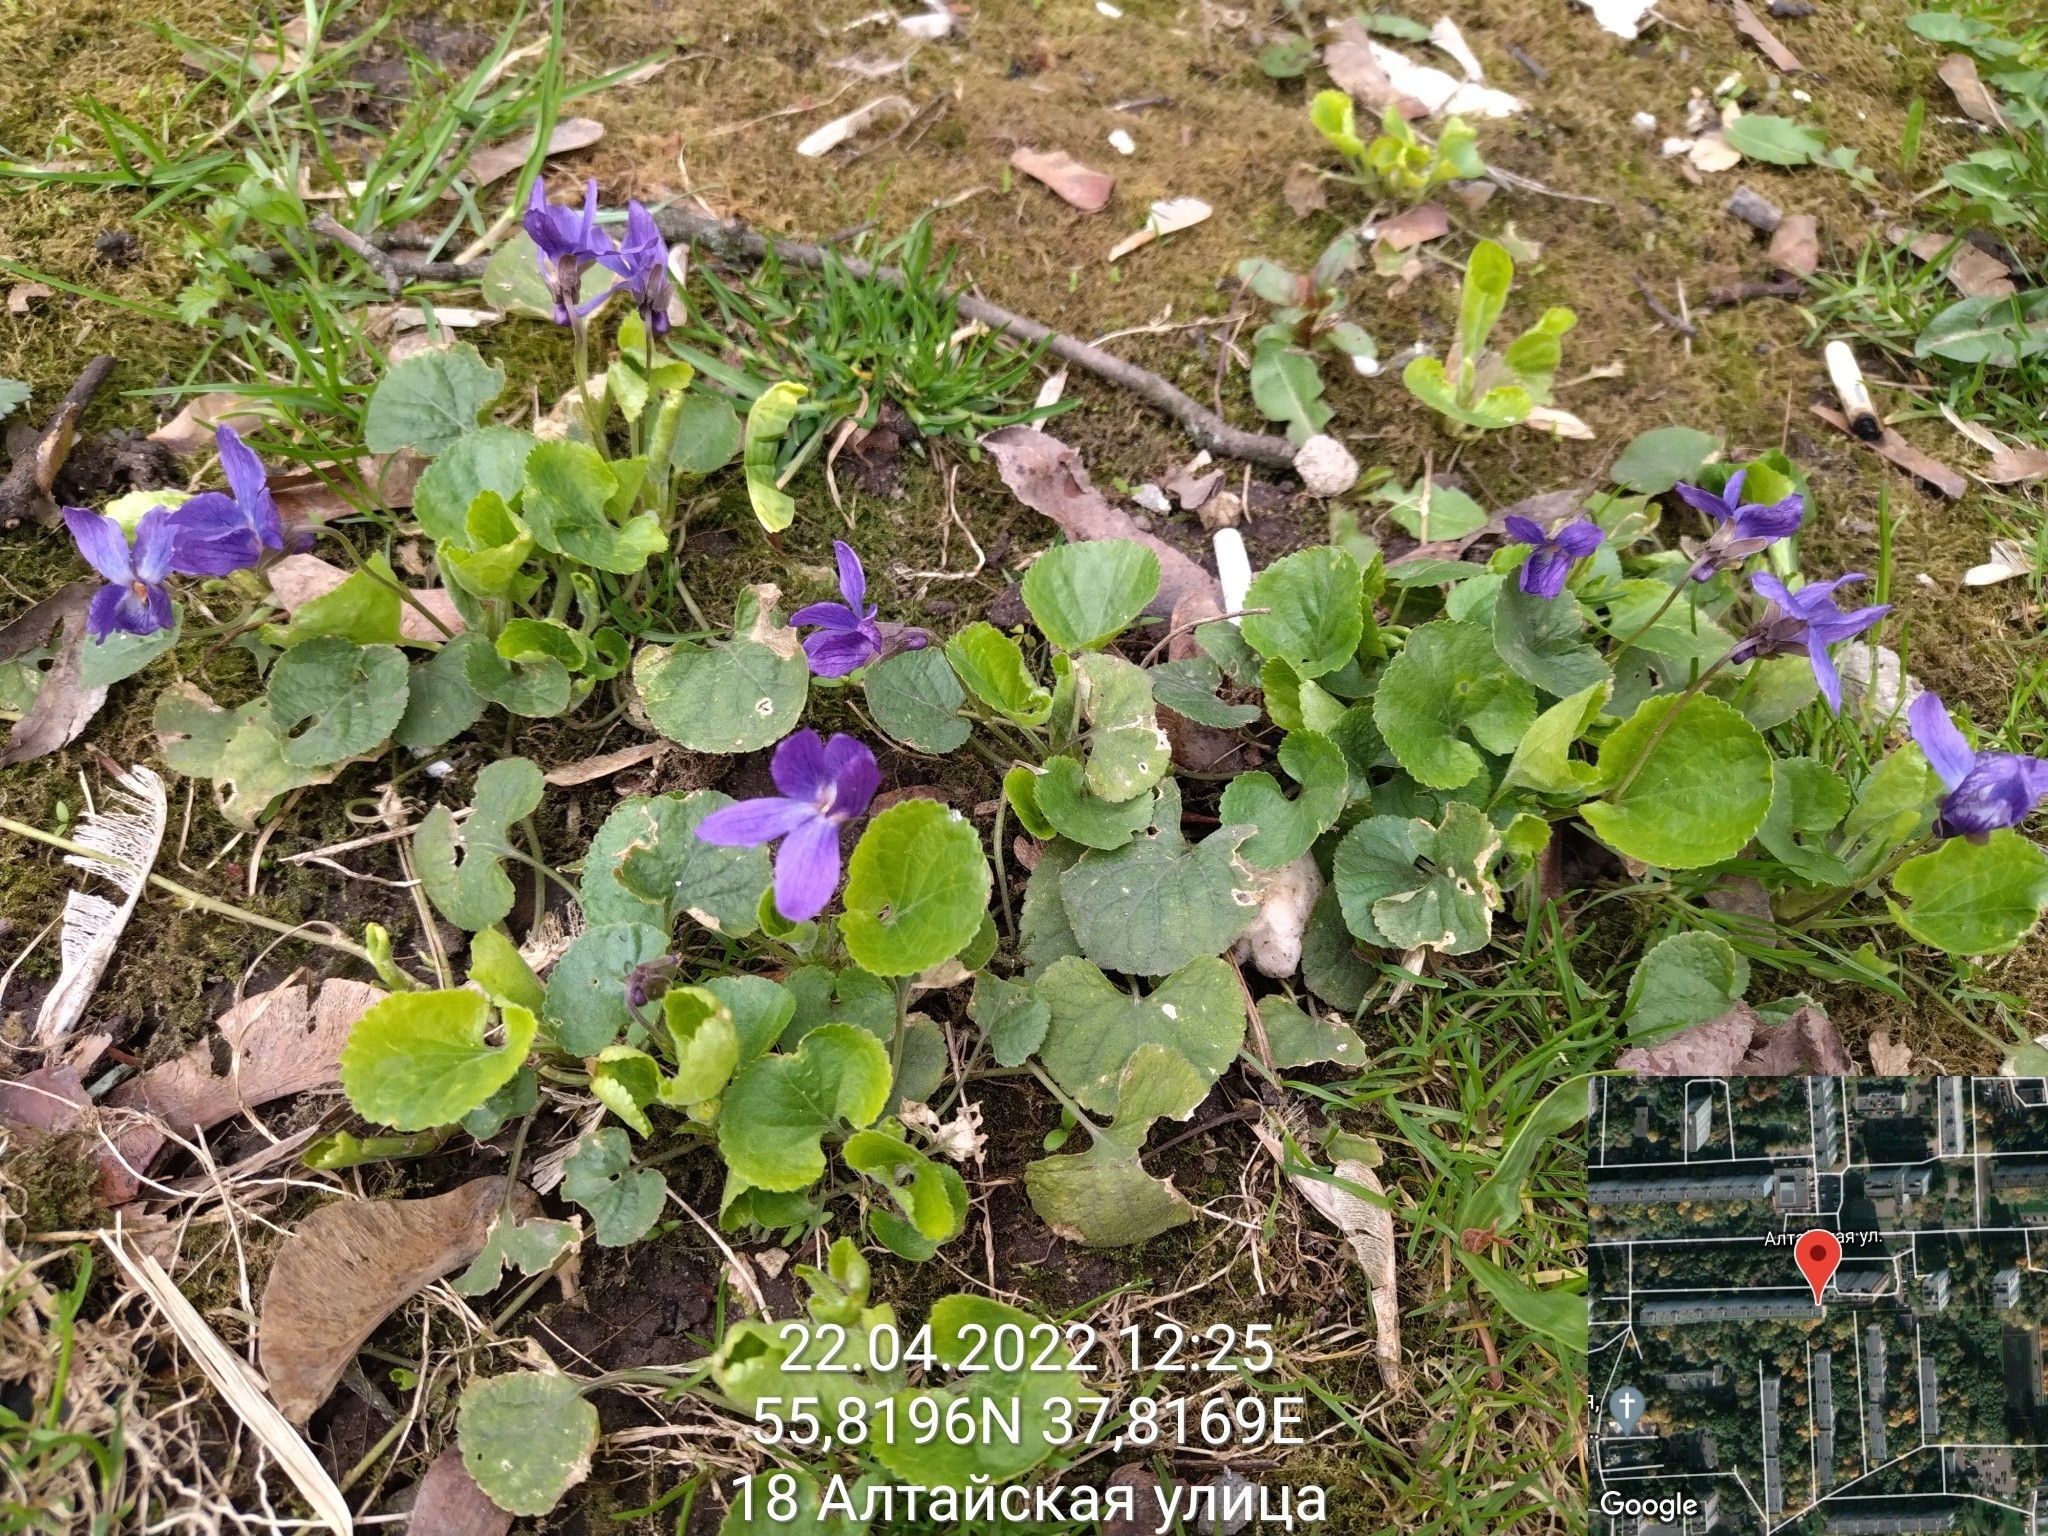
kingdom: Plantae
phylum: Tracheophyta
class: Magnoliopsida
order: Malpighiales
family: Violaceae
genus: Viola
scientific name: Viola odorata
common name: Sweet violet
